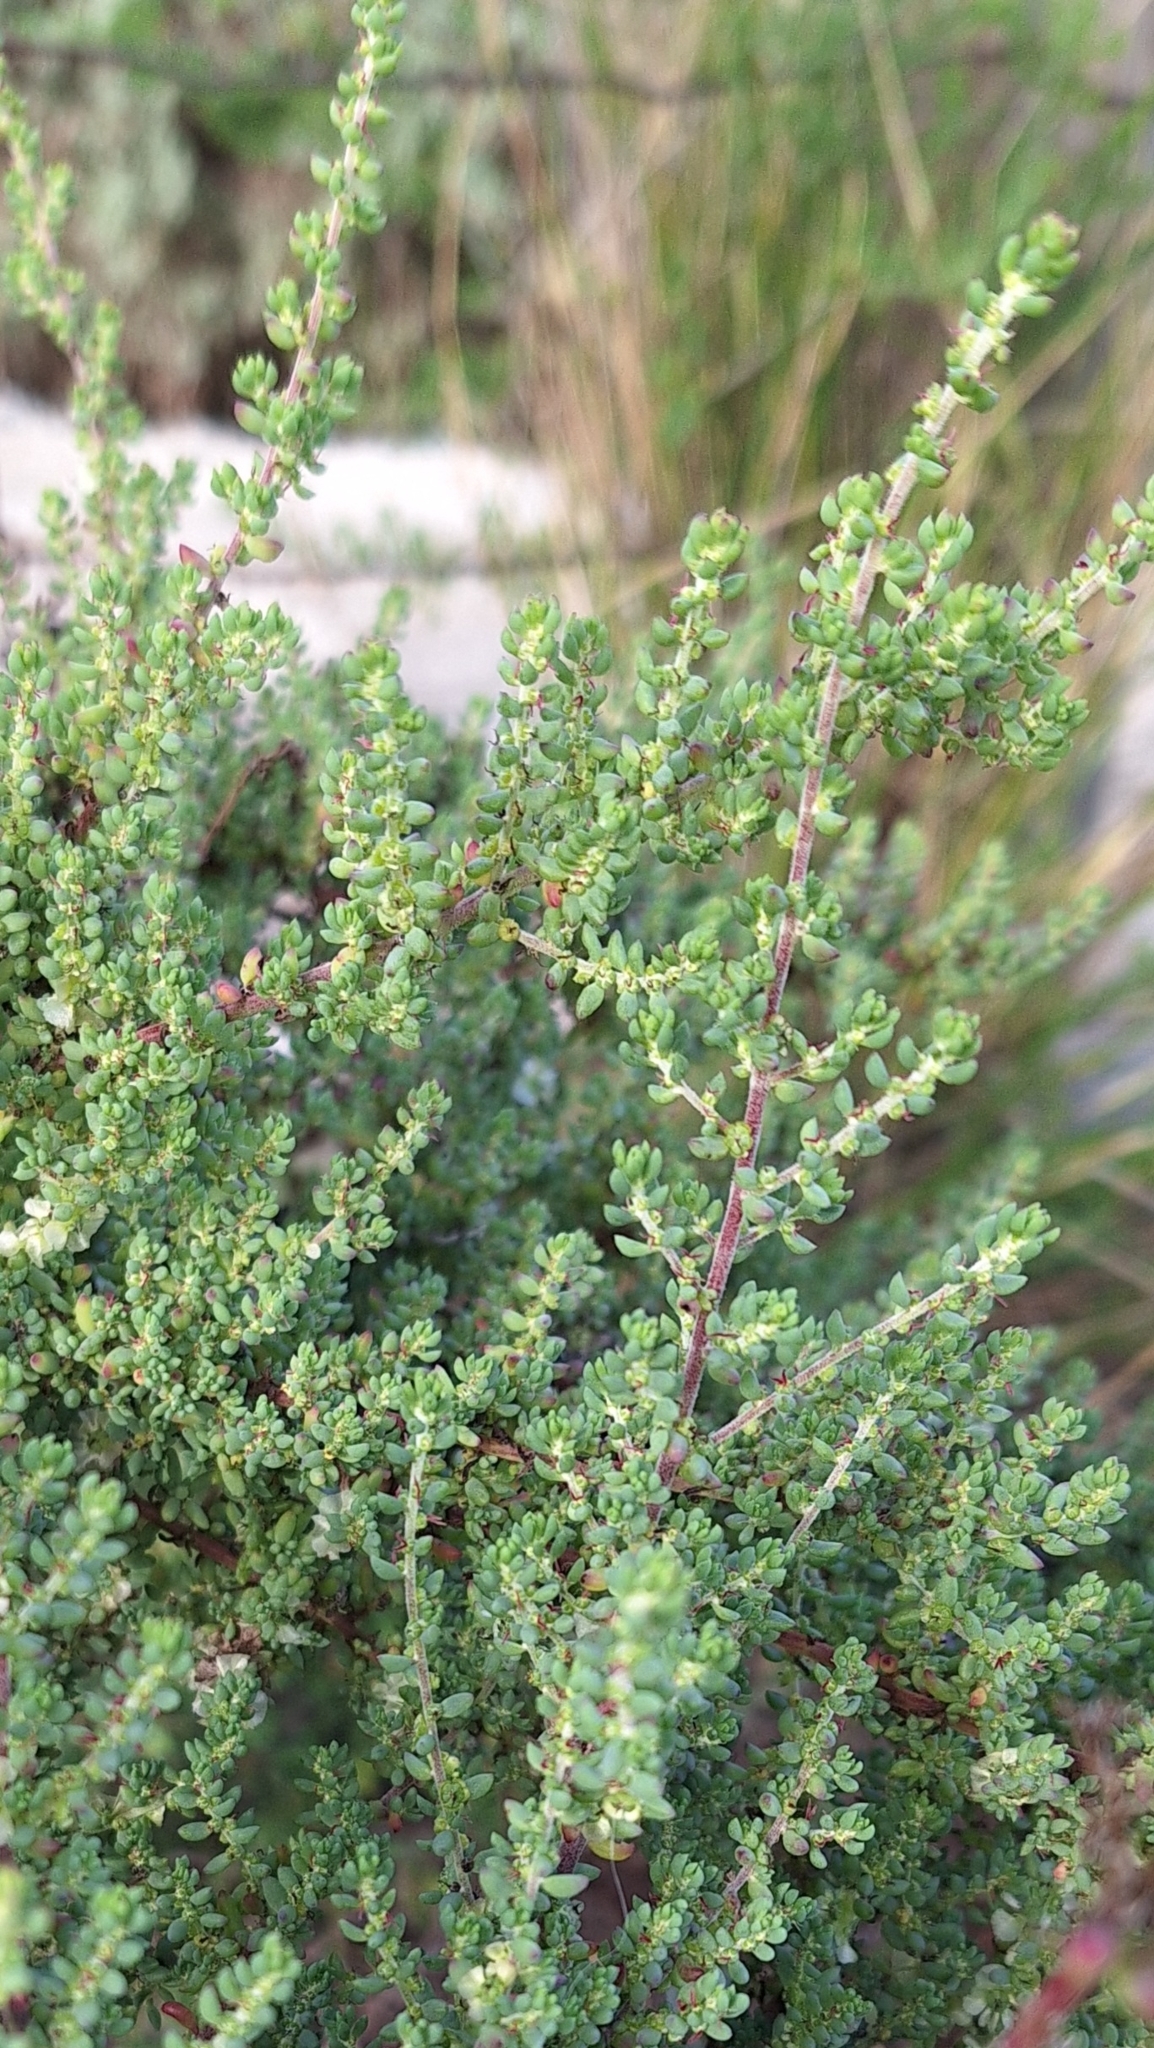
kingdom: Plantae
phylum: Tracheophyta
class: Magnoliopsida
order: Caryophyllales
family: Amaranthaceae
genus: Maireana
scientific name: Maireana brevifolia
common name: Eastern cottonbush
